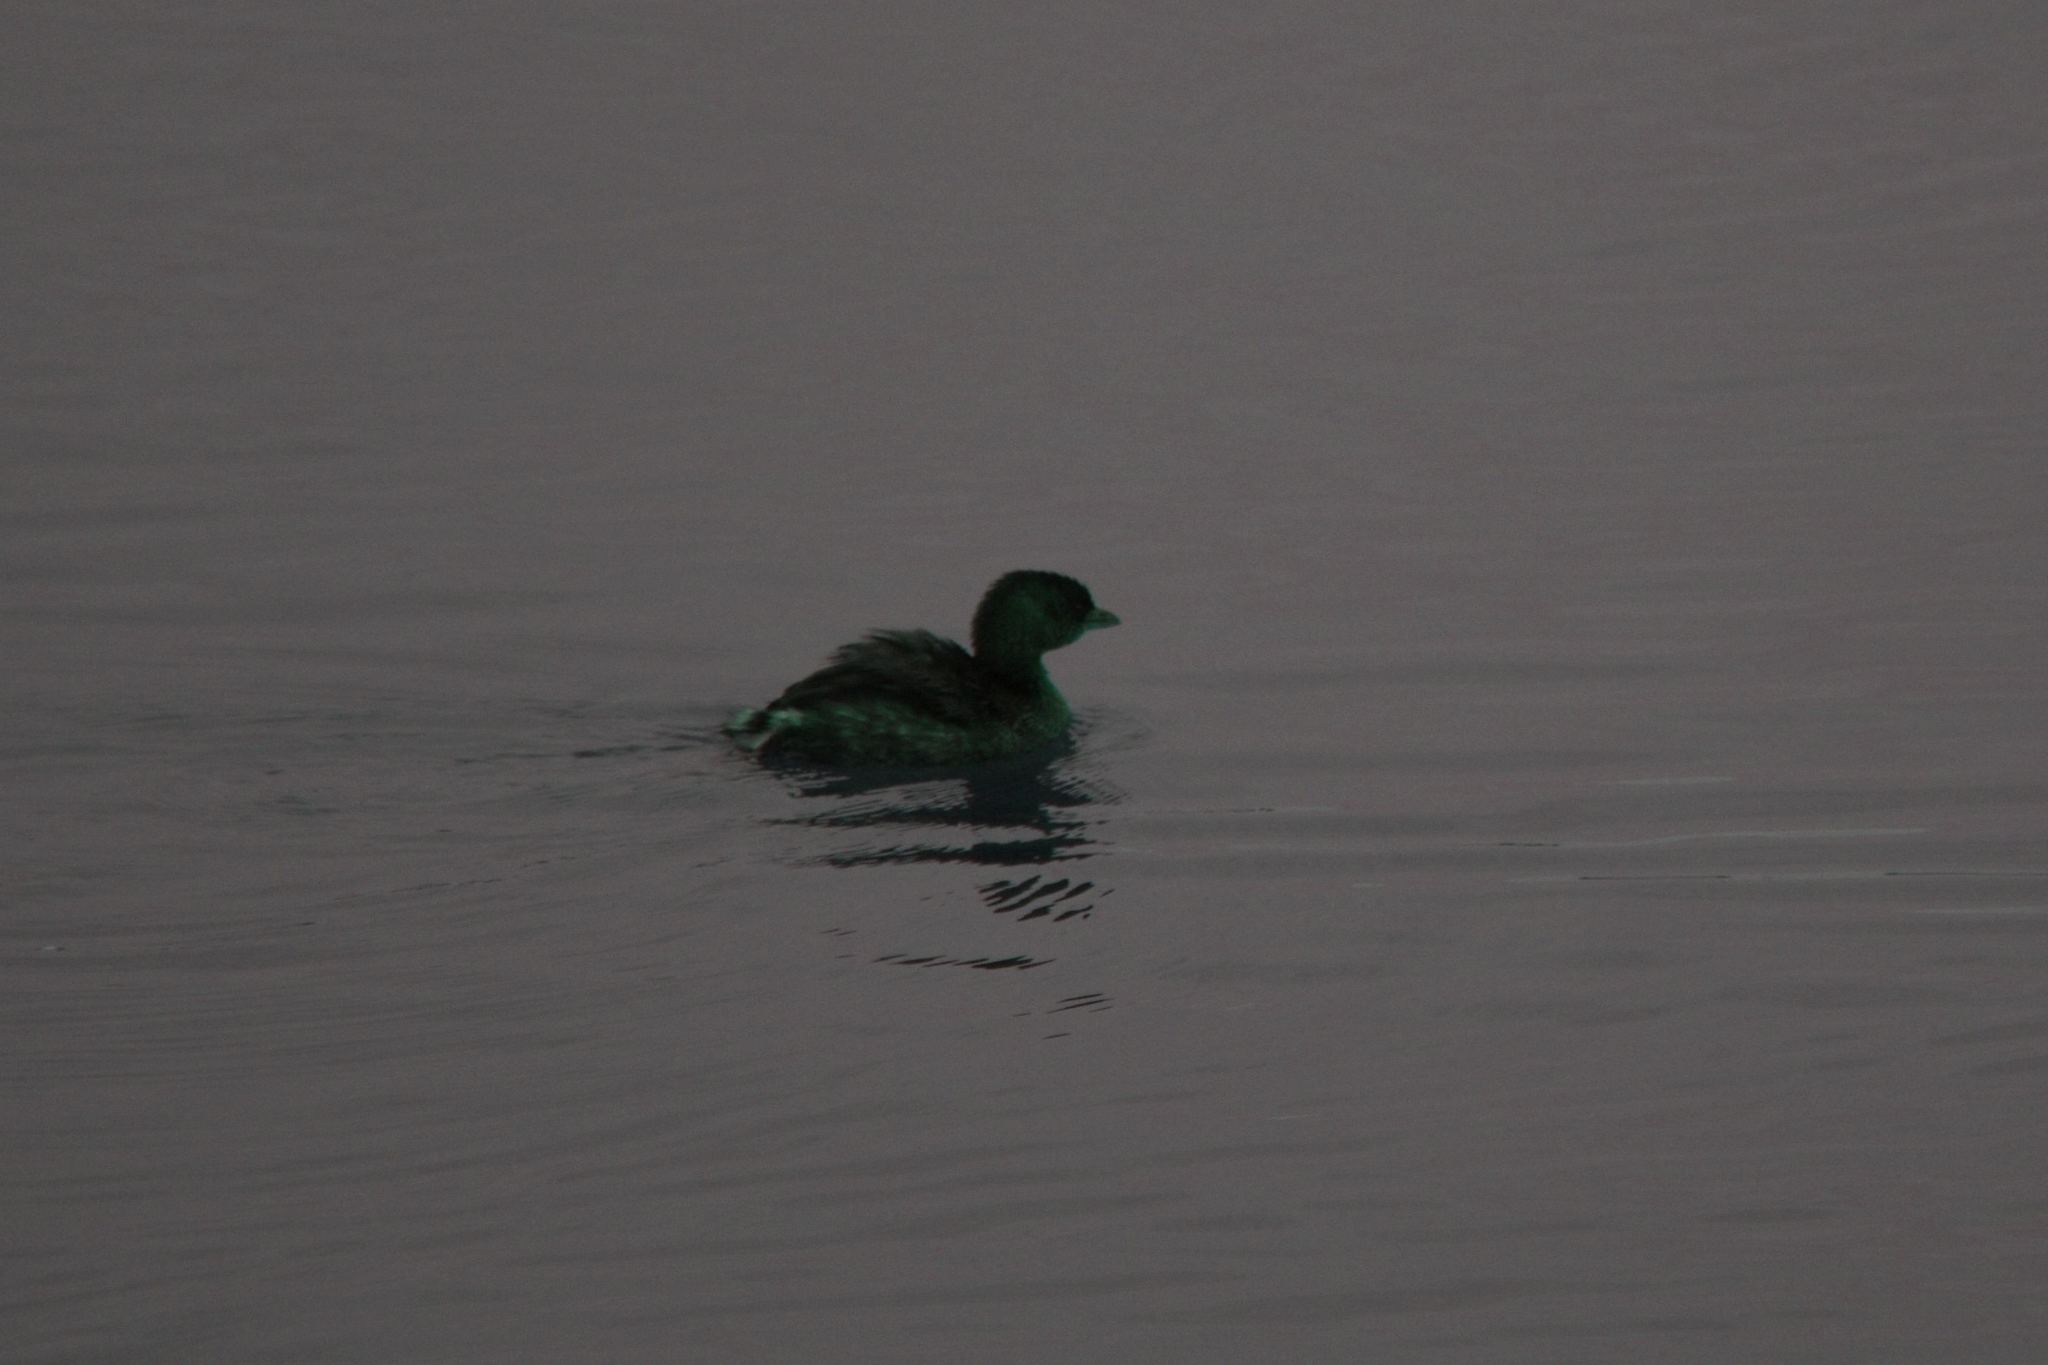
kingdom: Animalia
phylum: Chordata
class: Aves
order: Podicipediformes
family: Podicipedidae
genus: Podilymbus
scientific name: Podilymbus podiceps
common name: Pied-billed grebe
